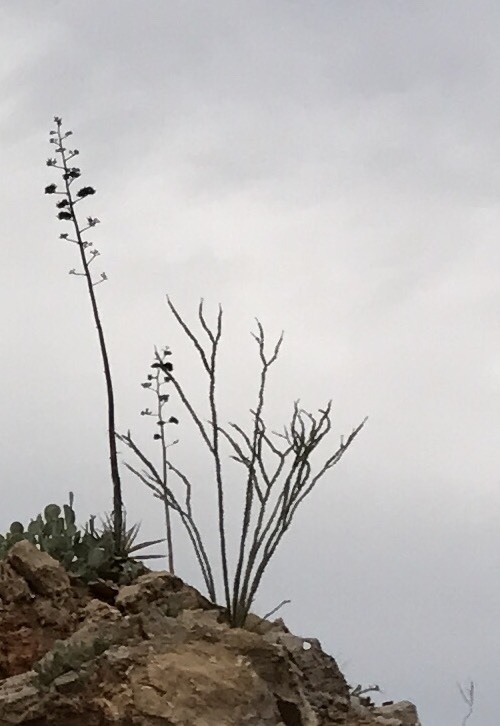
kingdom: Plantae
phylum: Tracheophyta
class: Magnoliopsida
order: Ericales
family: Fouquieriaceae
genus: Fouquieria
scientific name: Fouquieria splendens
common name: Vine-cactus
